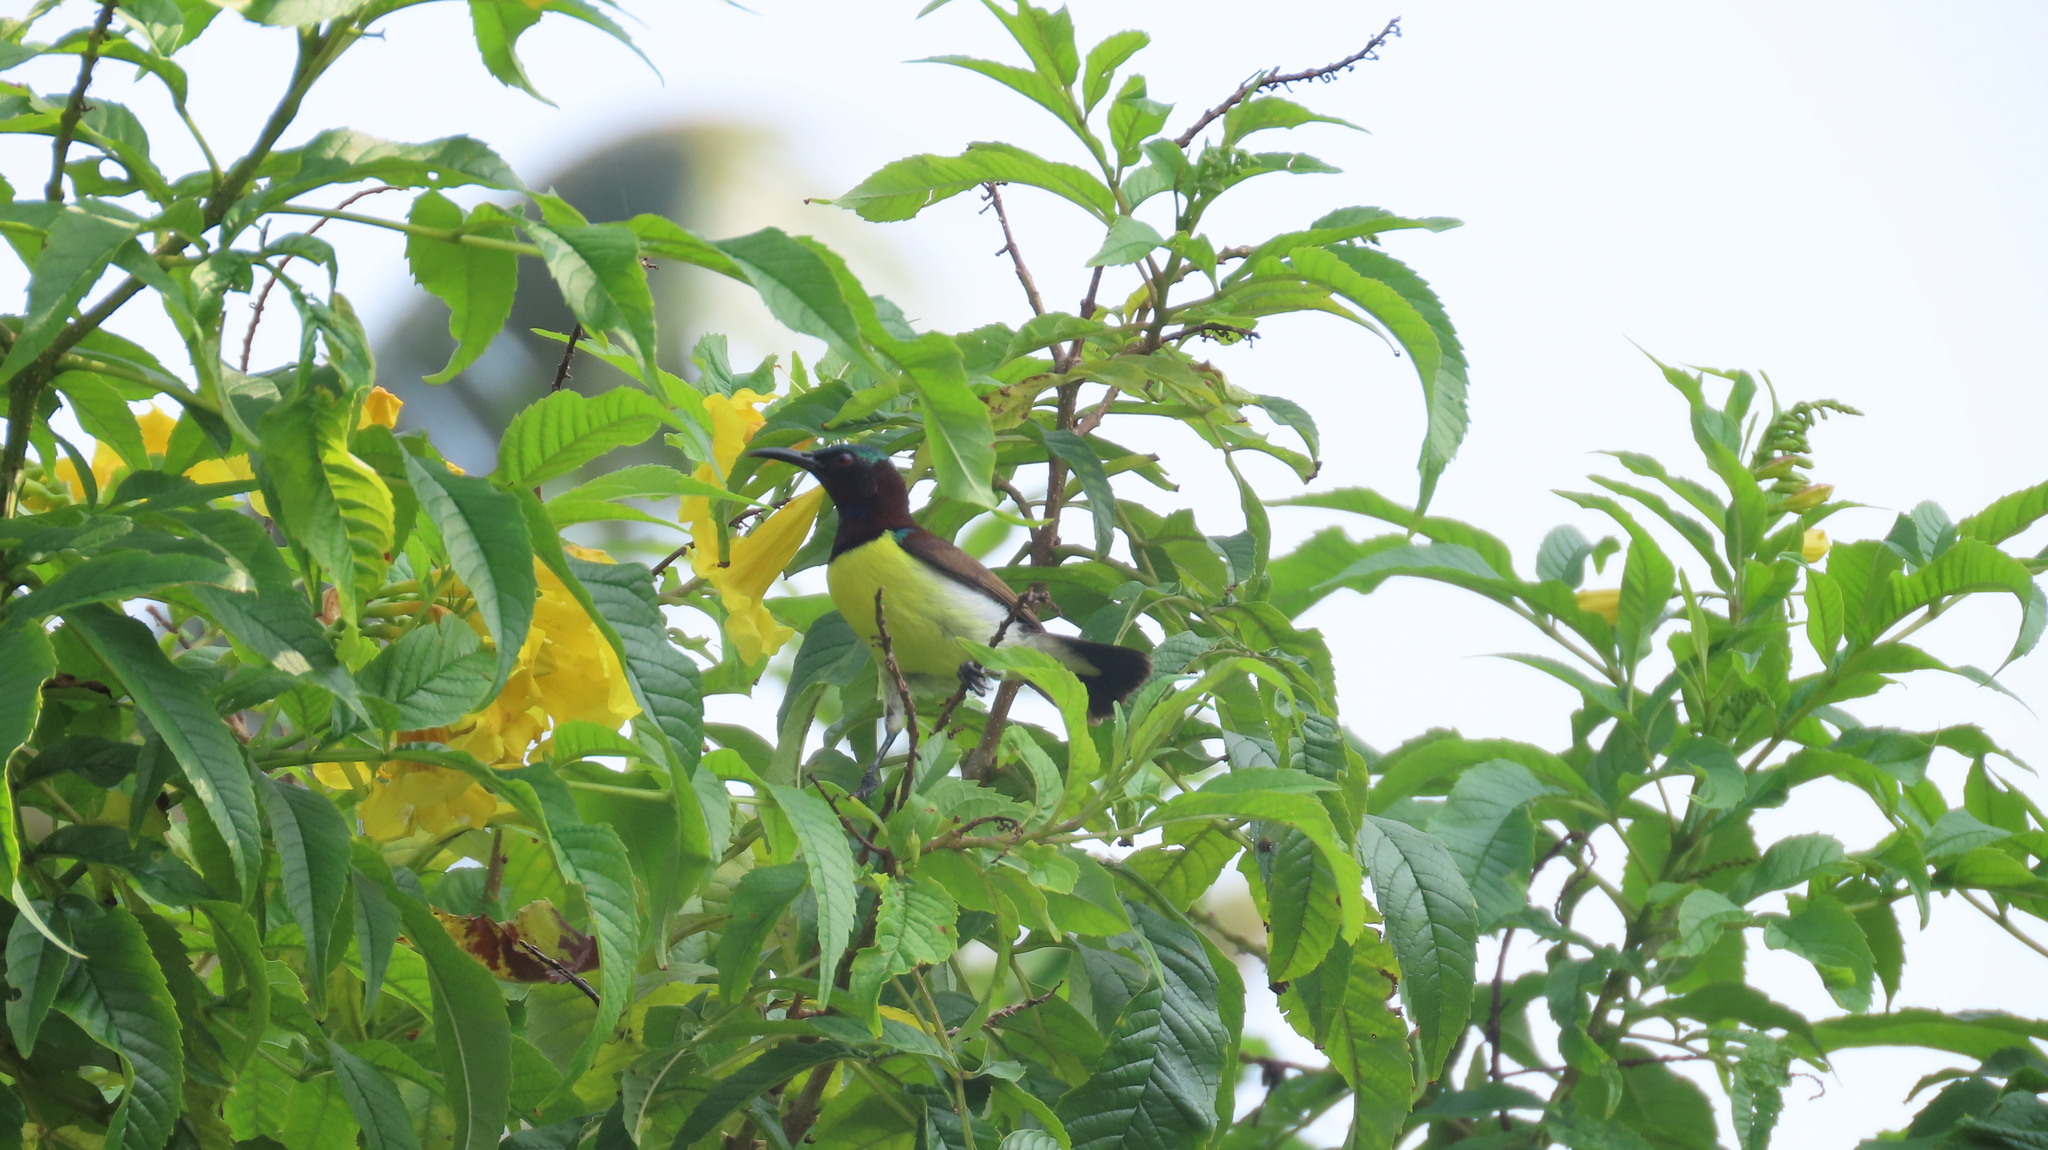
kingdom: Animalia
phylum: Chordata
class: Aves
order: Passeriformes
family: Nectariniidae
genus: Leptocoma
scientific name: Leptocoma zeylonica
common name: Purple-rumped sunbird
